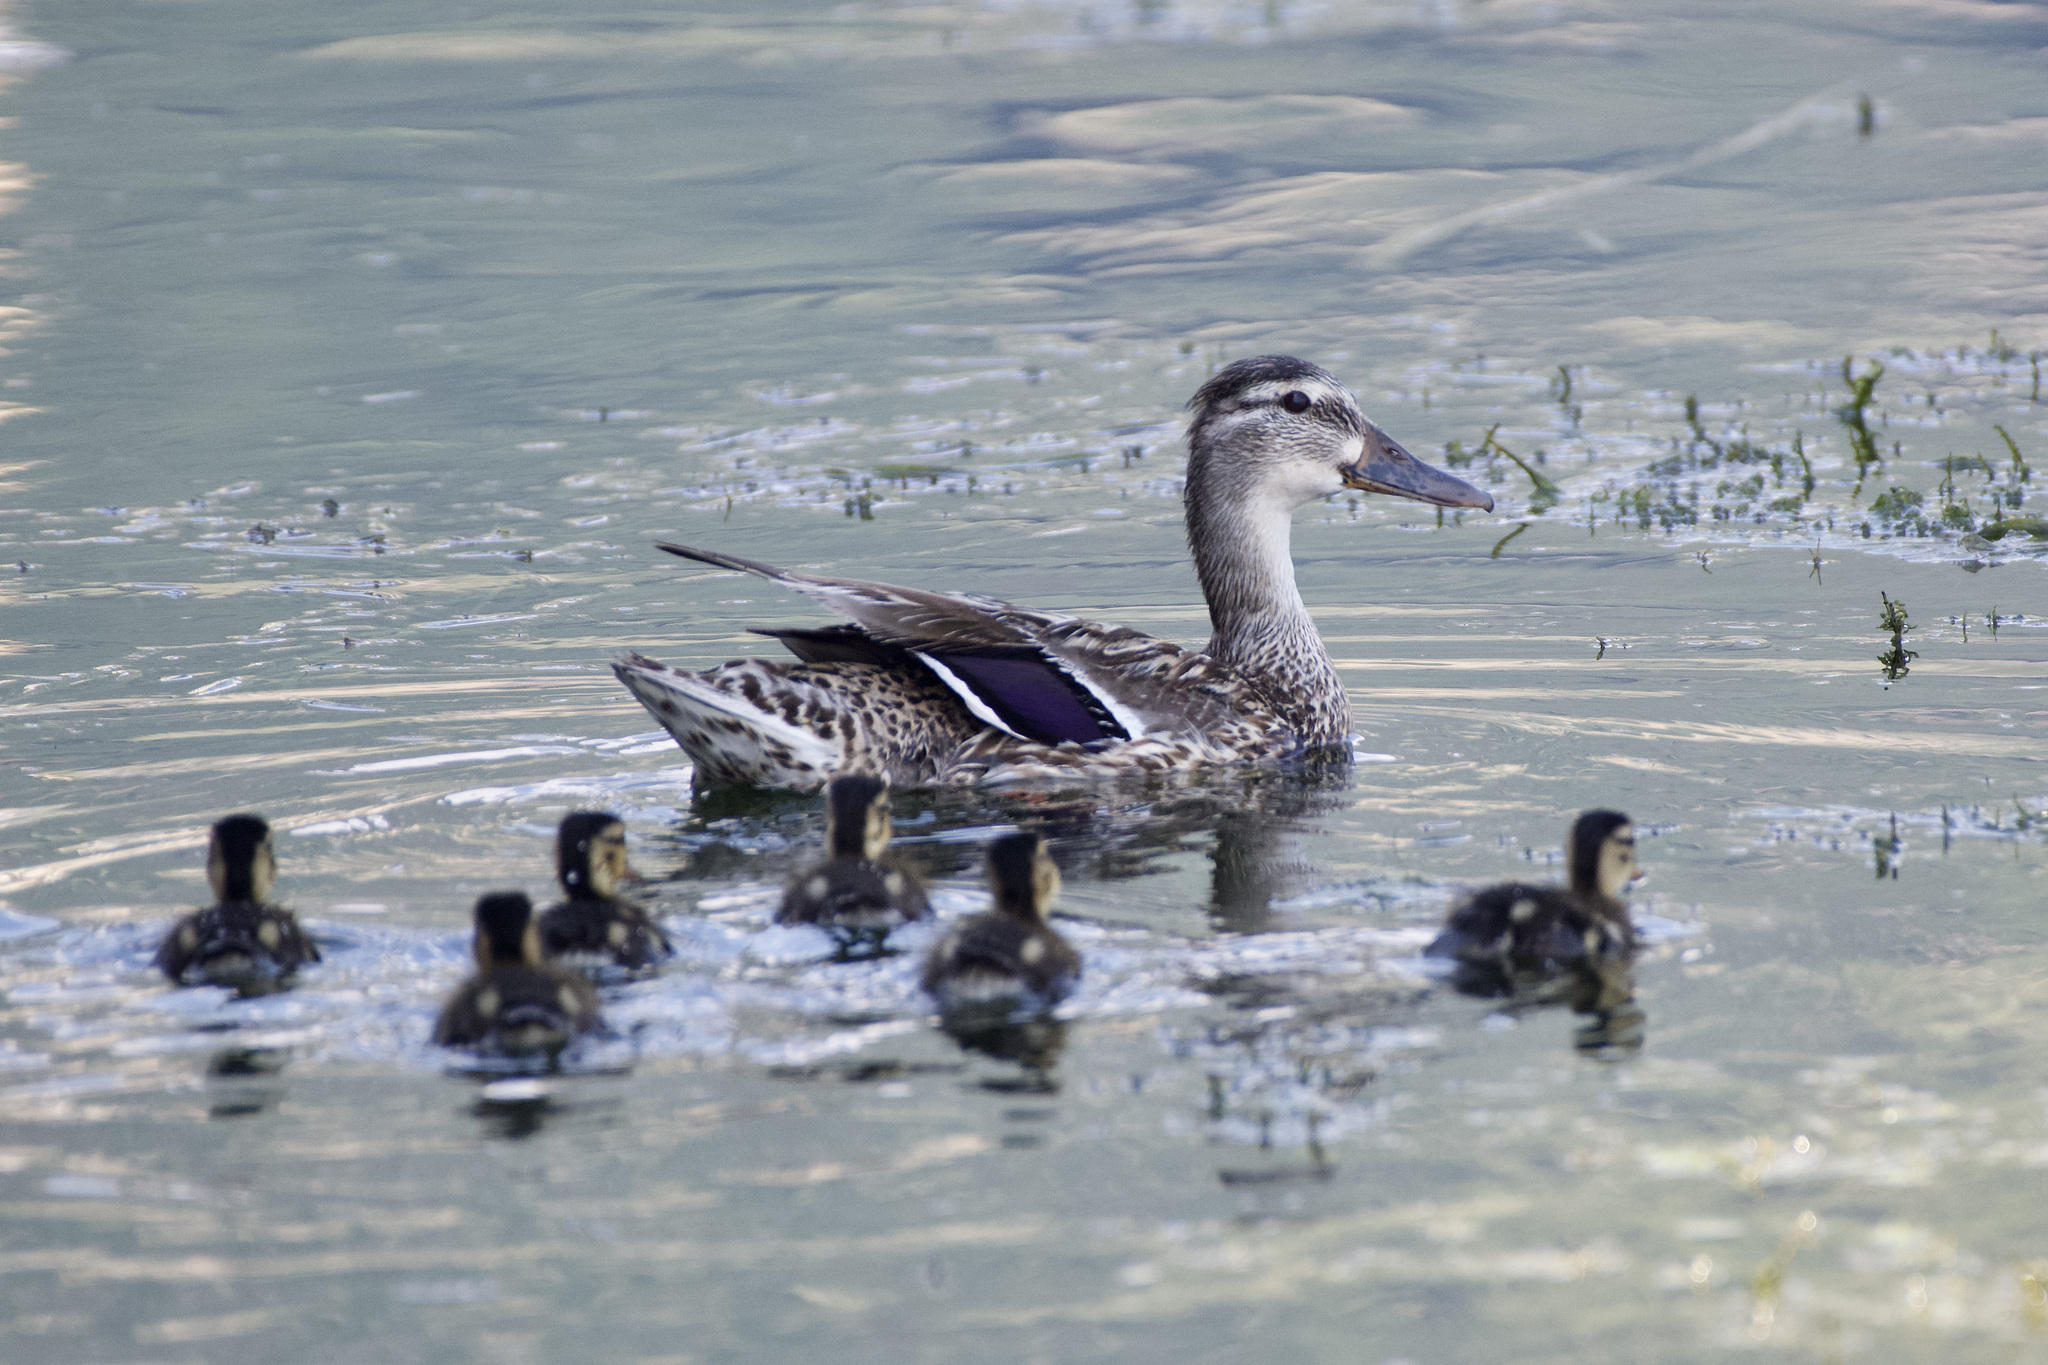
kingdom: Animalia
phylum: Chordata
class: Aves
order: Anseriformes
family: Anatidae
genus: Anas
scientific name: Anas platyrhynchos
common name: Mallard
